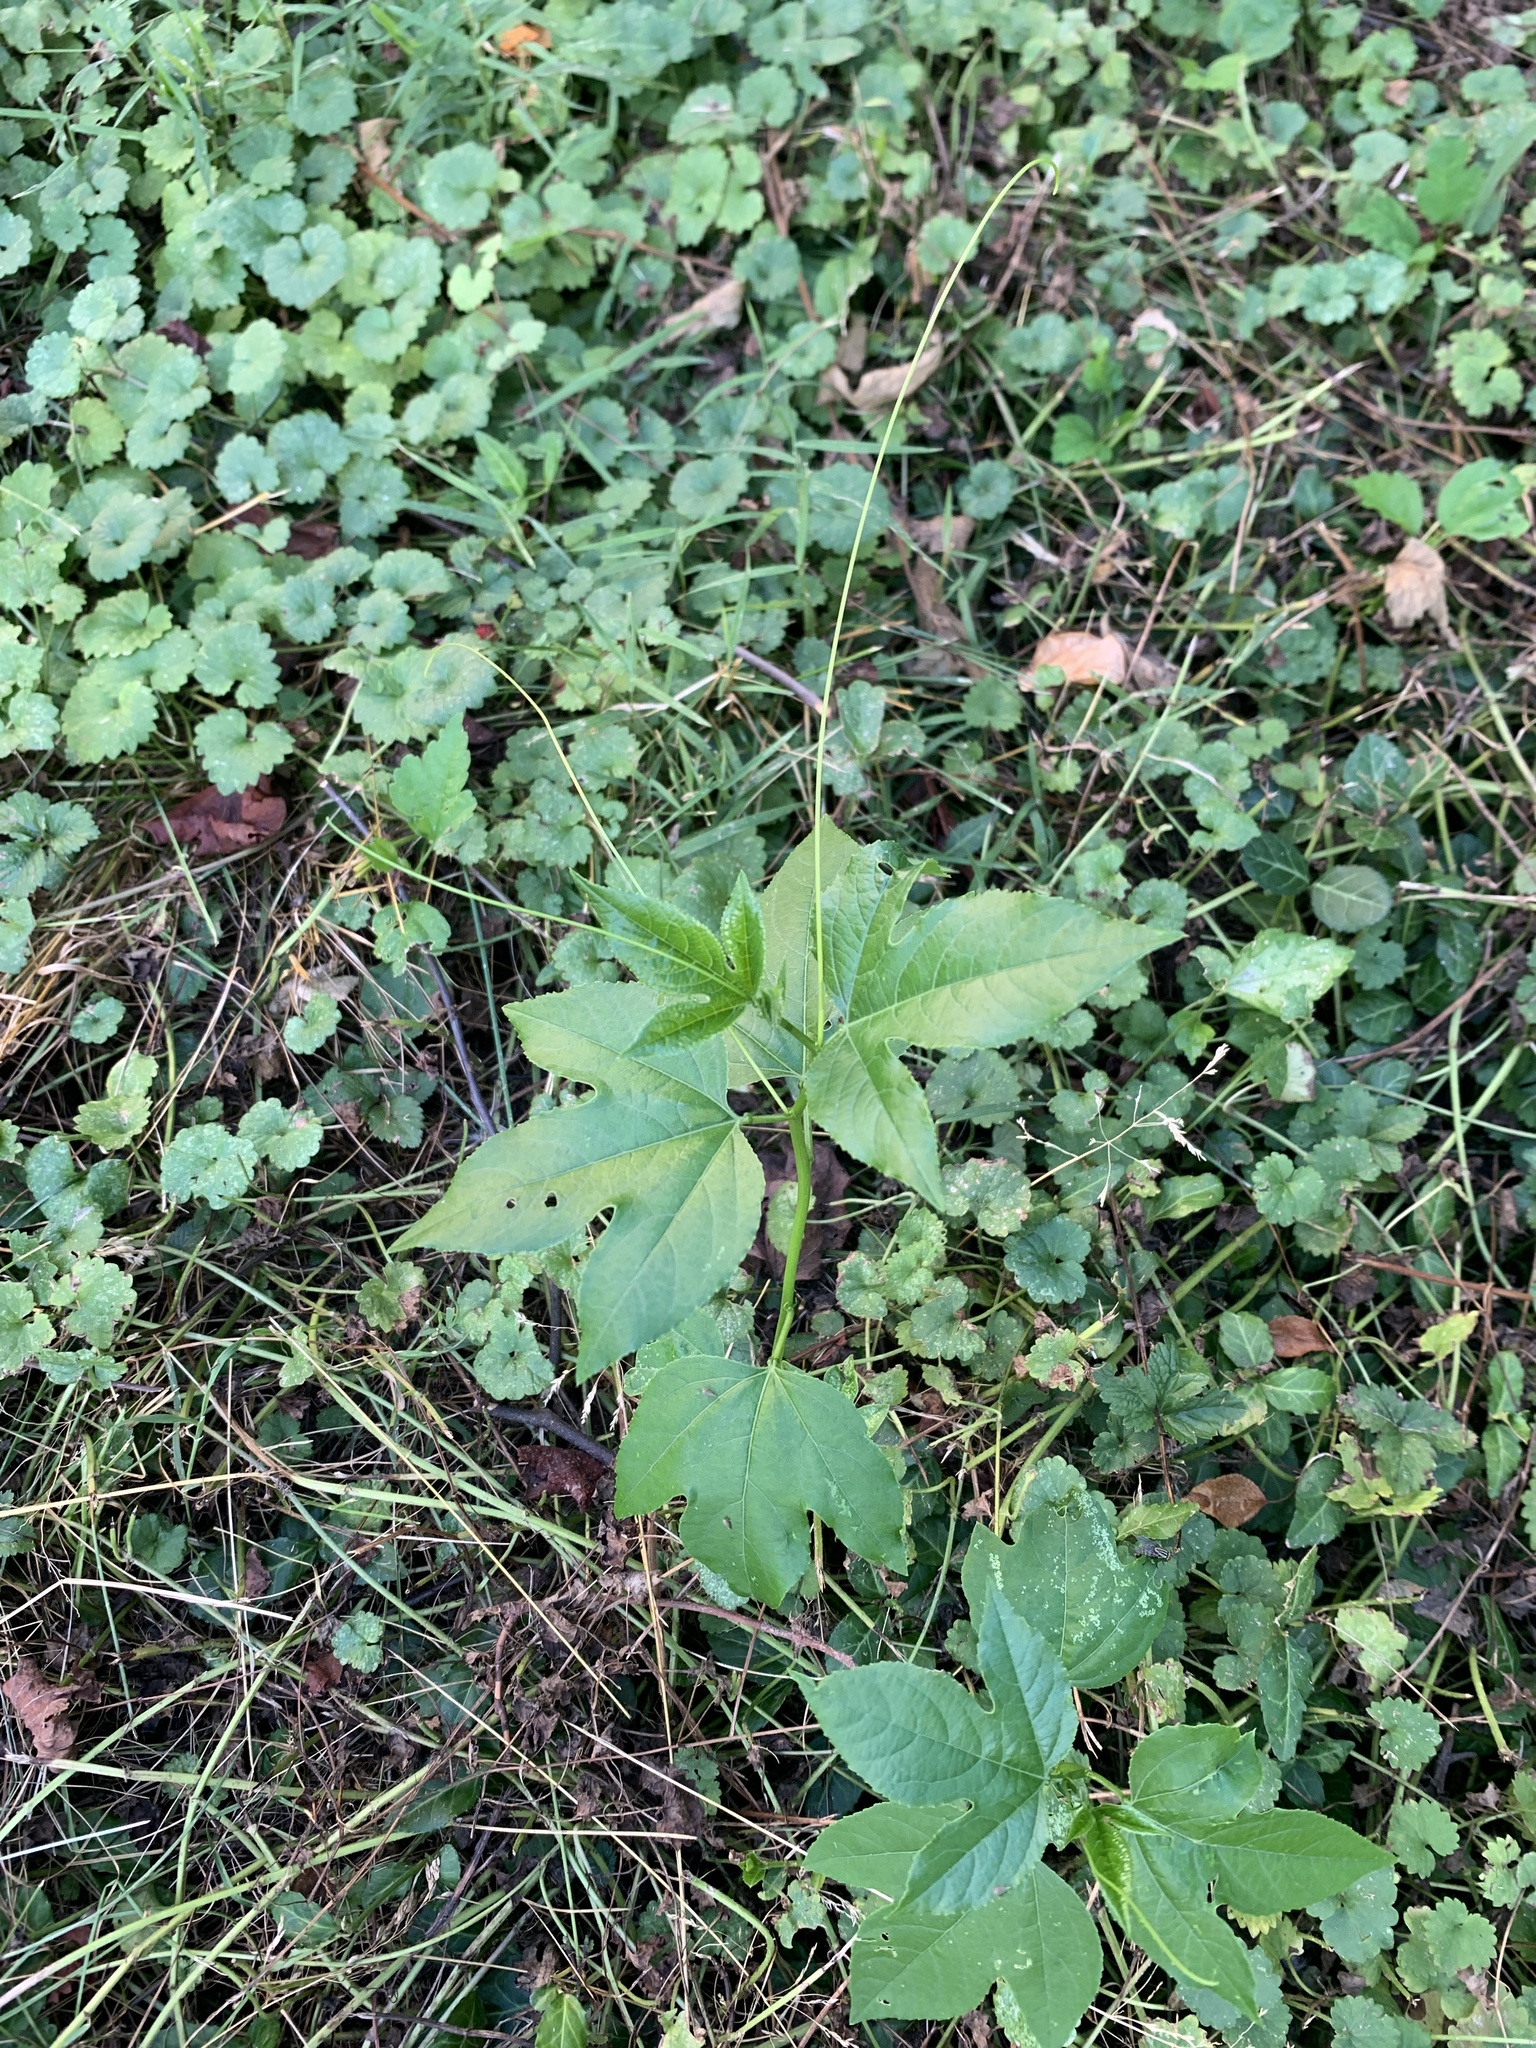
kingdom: Plantae
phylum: Tracheophyta
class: Magnoliopsida
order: Malpighiales
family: Passifloraceae
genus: Passiflora
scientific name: Passiflora incarnata
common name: Apricot-vine
